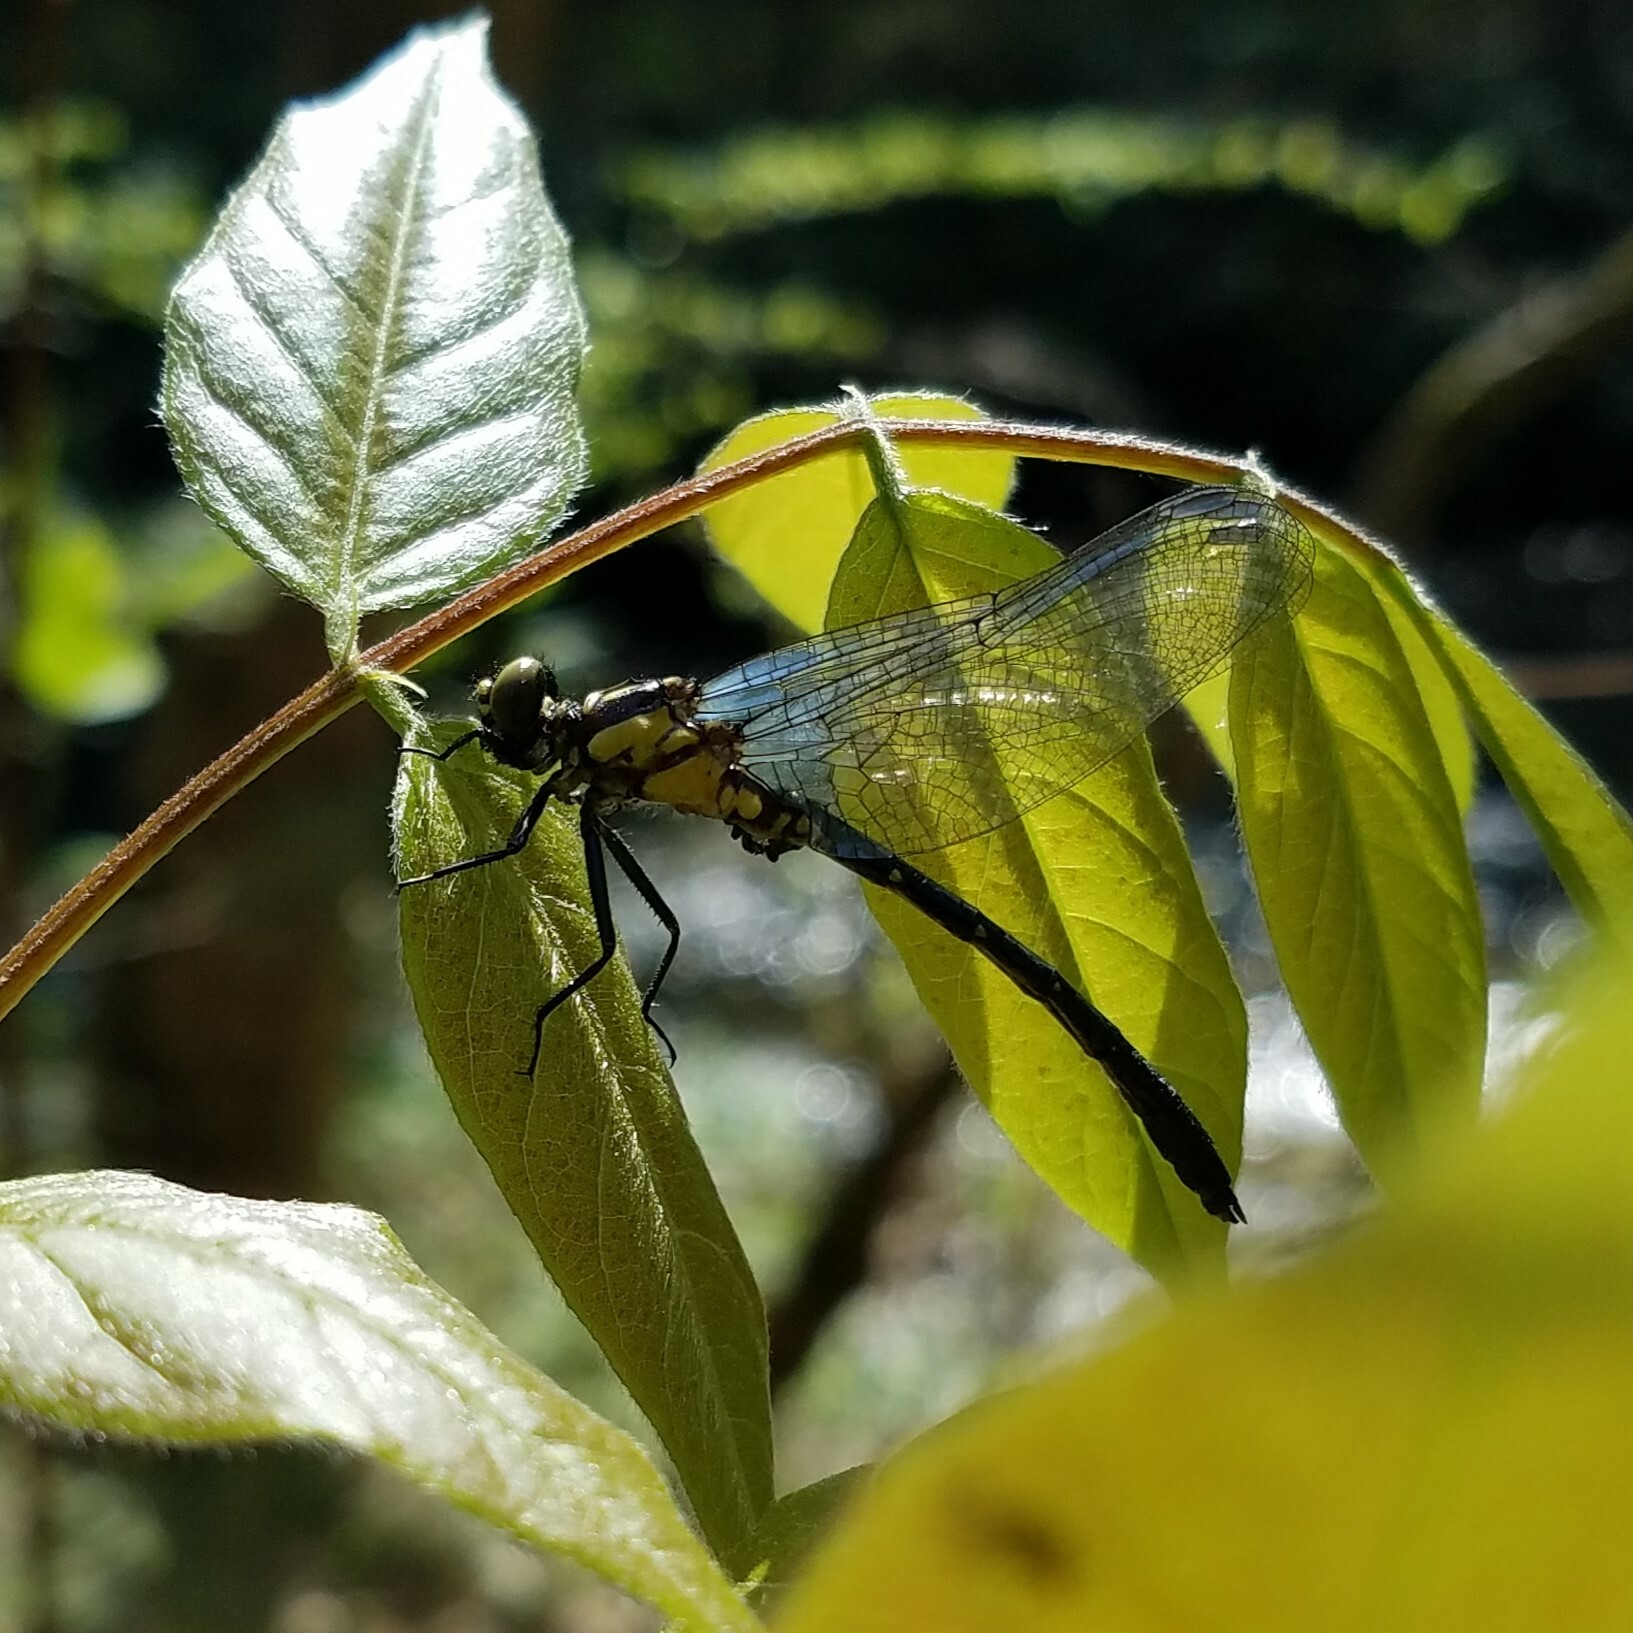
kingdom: Animalia
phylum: Arthropoda
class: Insecta
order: Odonata
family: Gomphidae
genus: Lanthus
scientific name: Lanthus vernalis
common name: Southern pygmy clubtail
